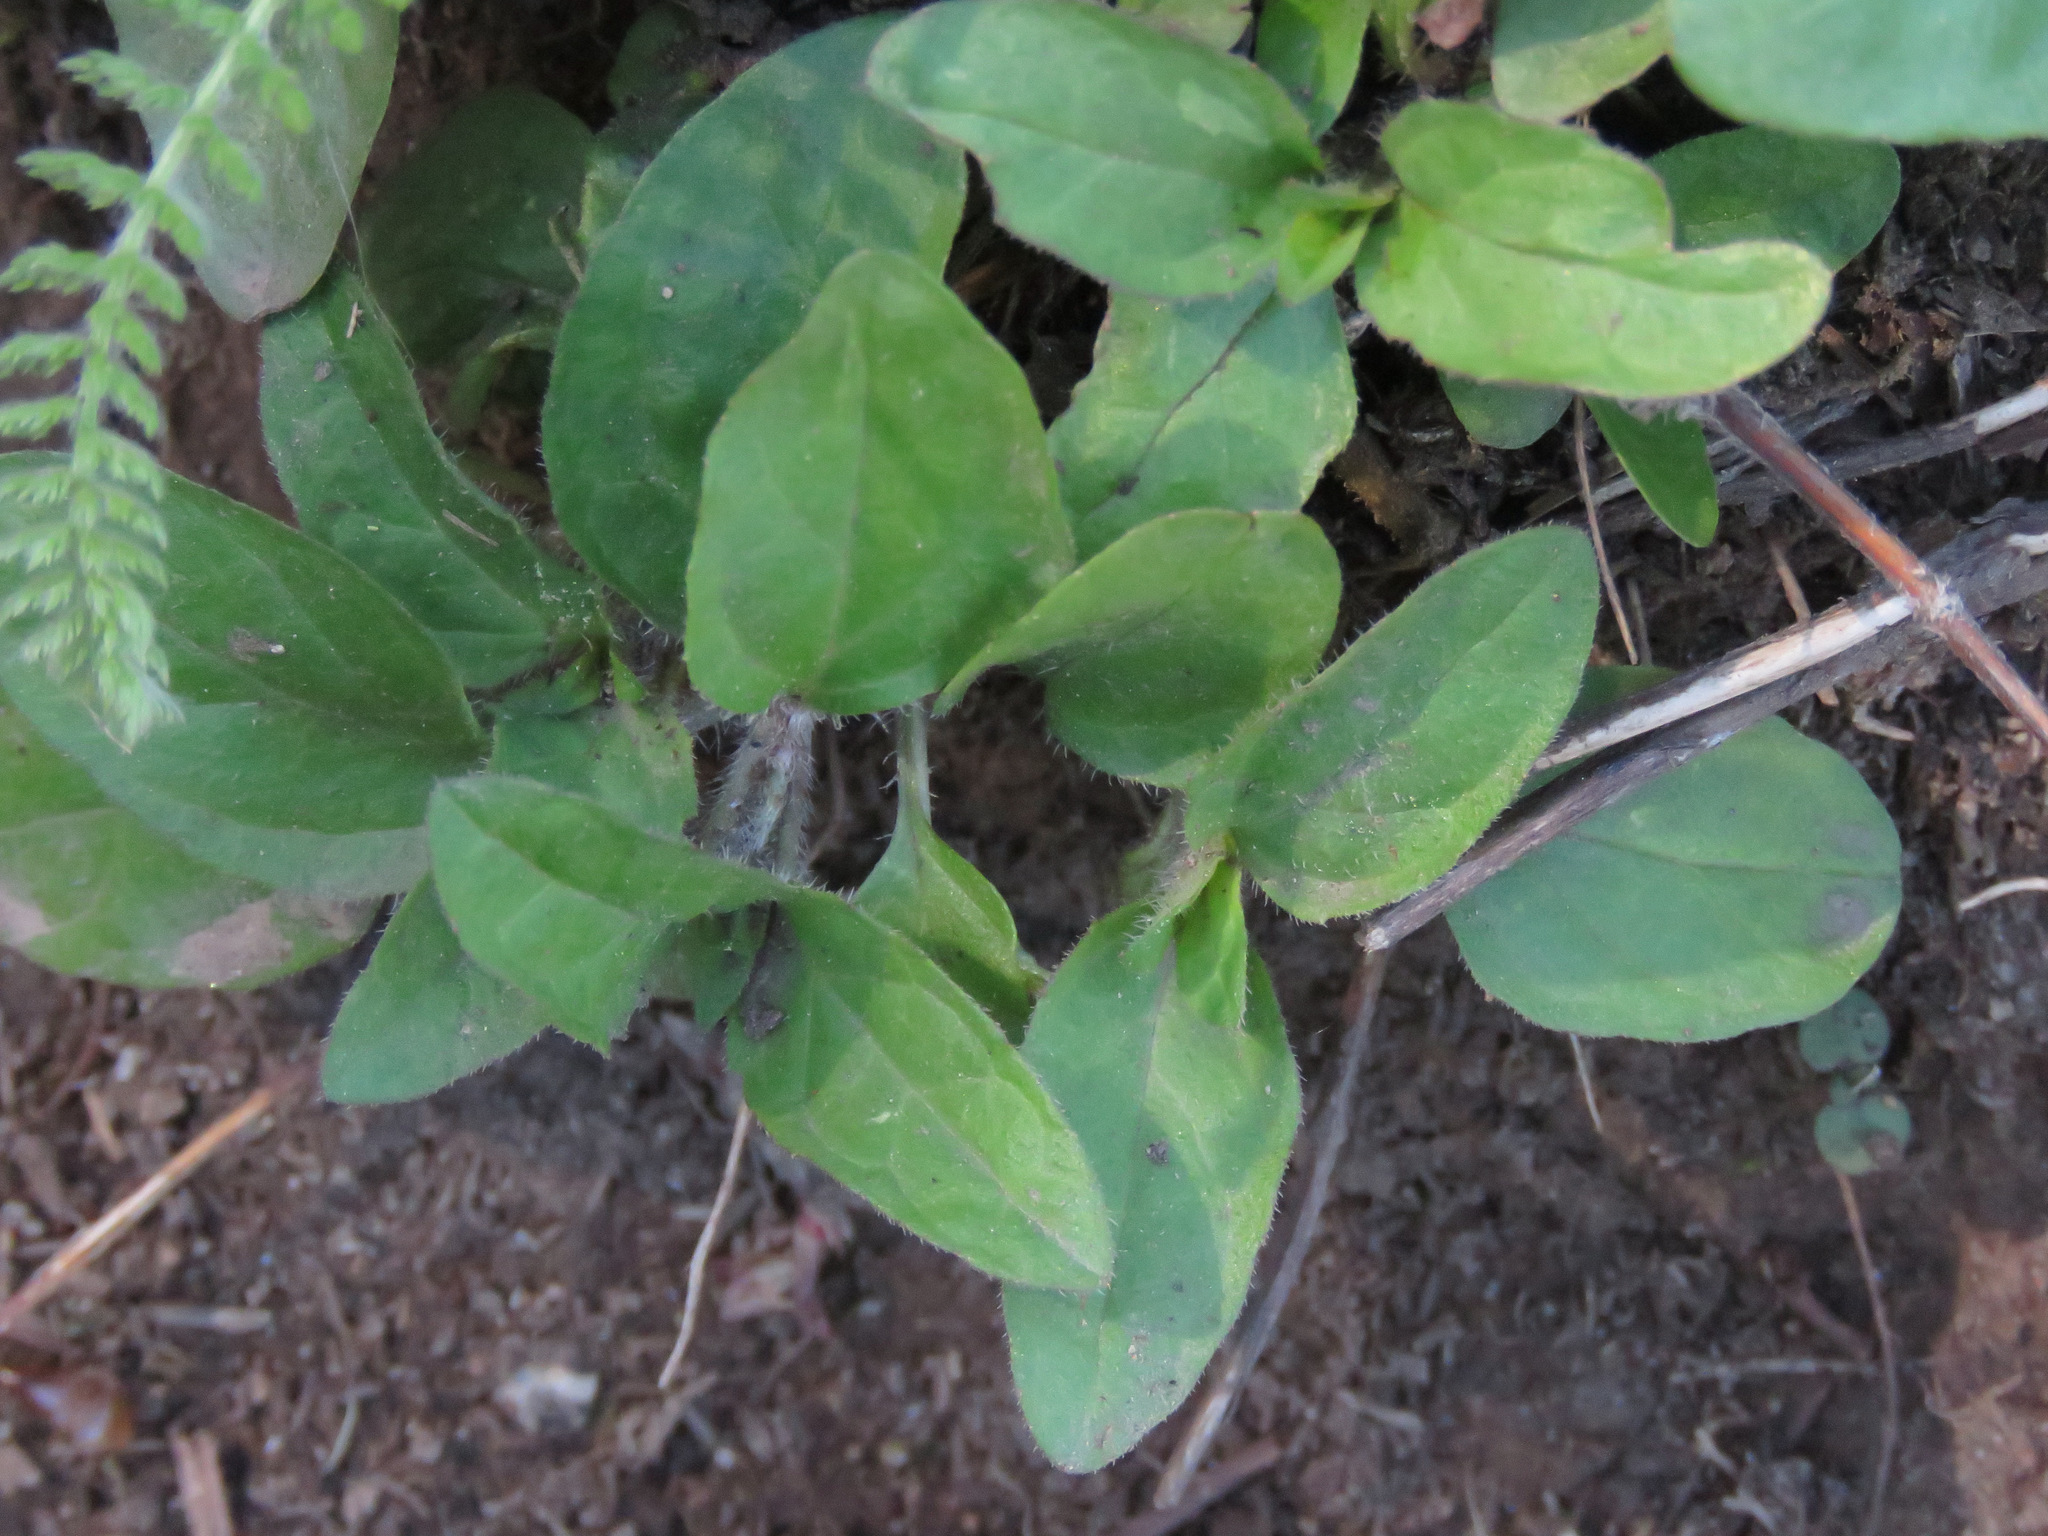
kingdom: Plantae
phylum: Tracheophyta
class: Magnoliopsida
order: Lamiales
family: Lamiaceae
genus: Prunella
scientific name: Prunella vulgaris
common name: Heal-all
